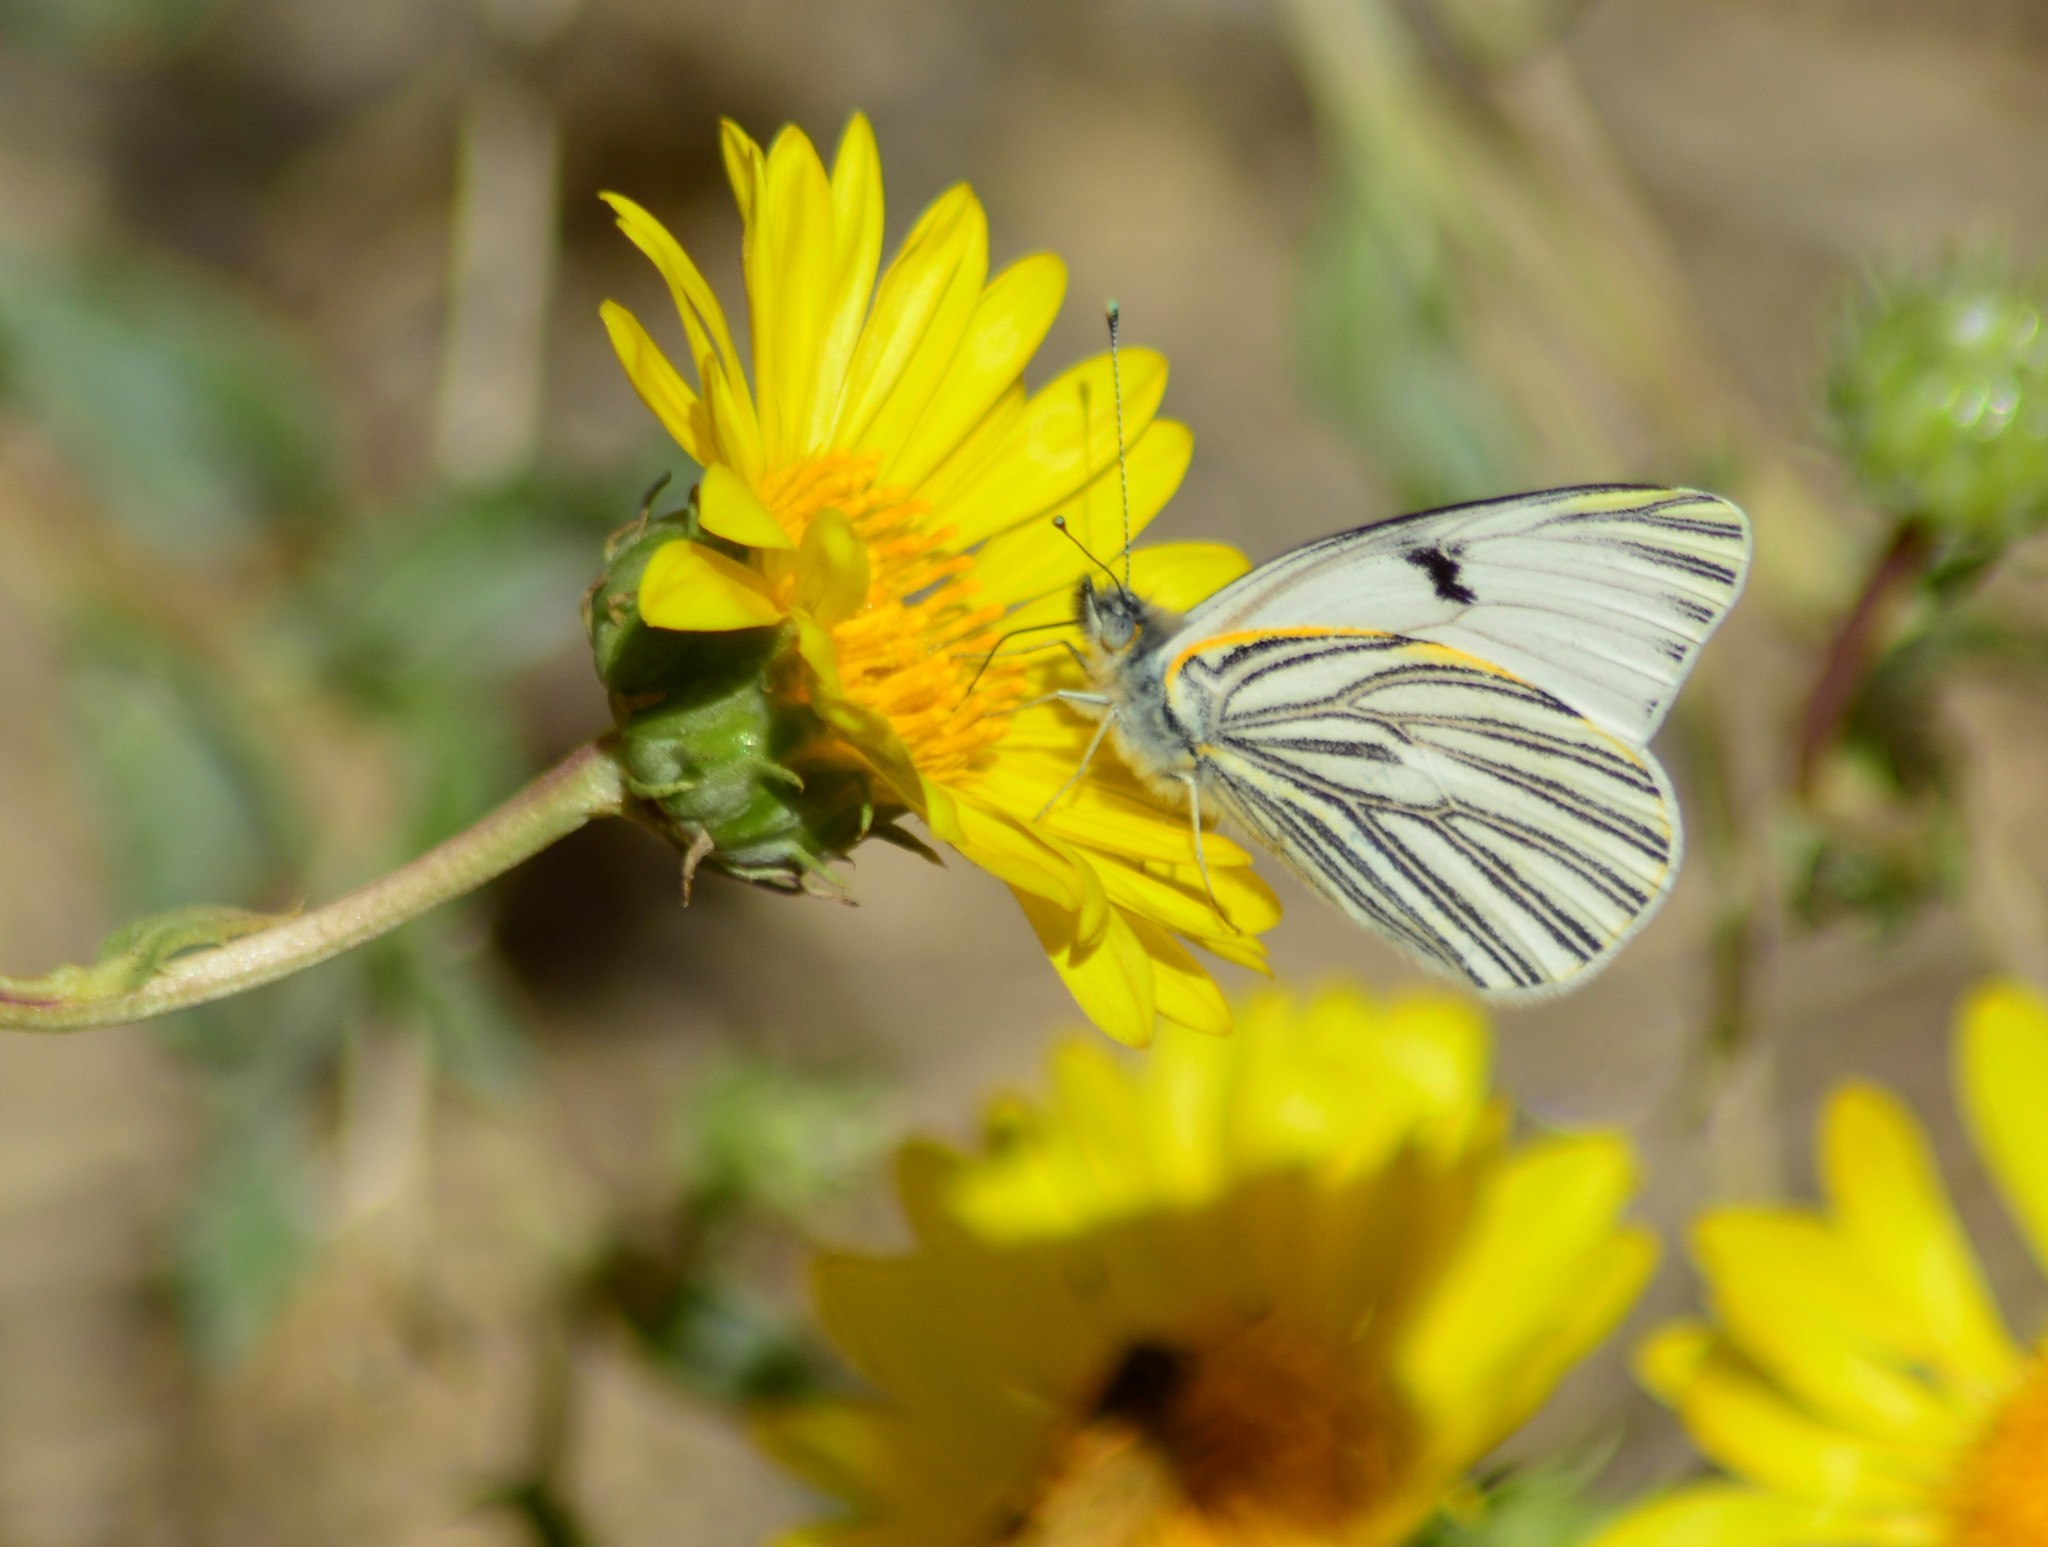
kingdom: Animalia
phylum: Arthropoda
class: Insecta
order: Lepidoptera
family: Pieridae
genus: Tatochila
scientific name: Tatochila mercedis
